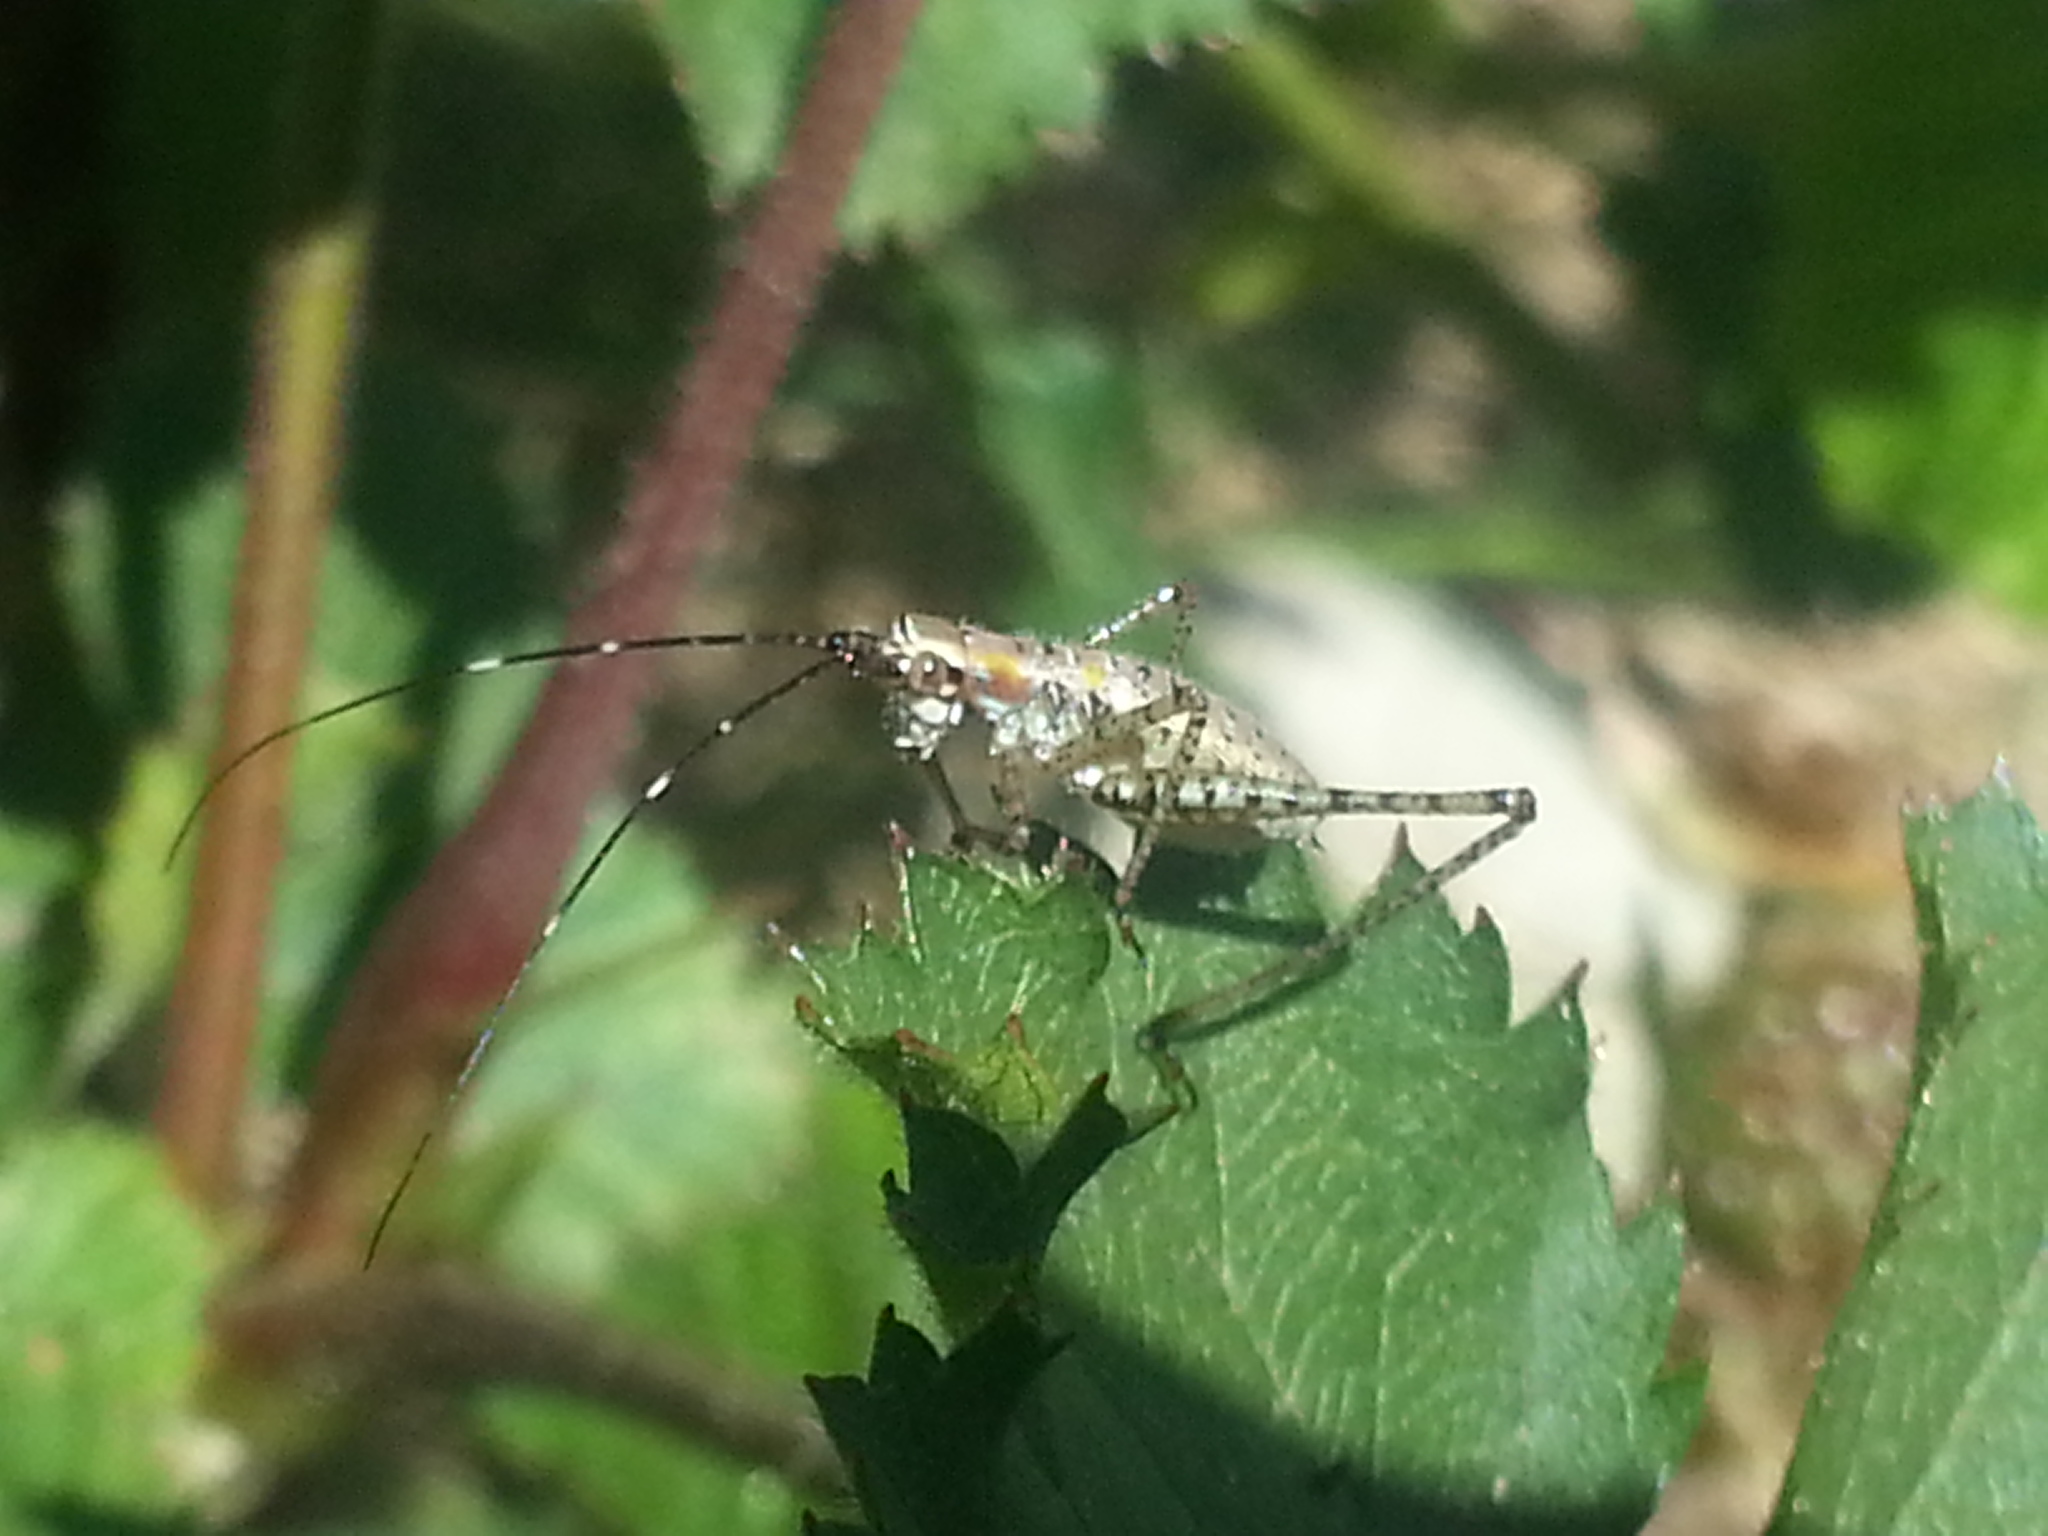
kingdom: Animalia
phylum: Arthropoda
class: Insecta
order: Orthoptera
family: Tettigoniidae
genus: Scudderia
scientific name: Scudderia
